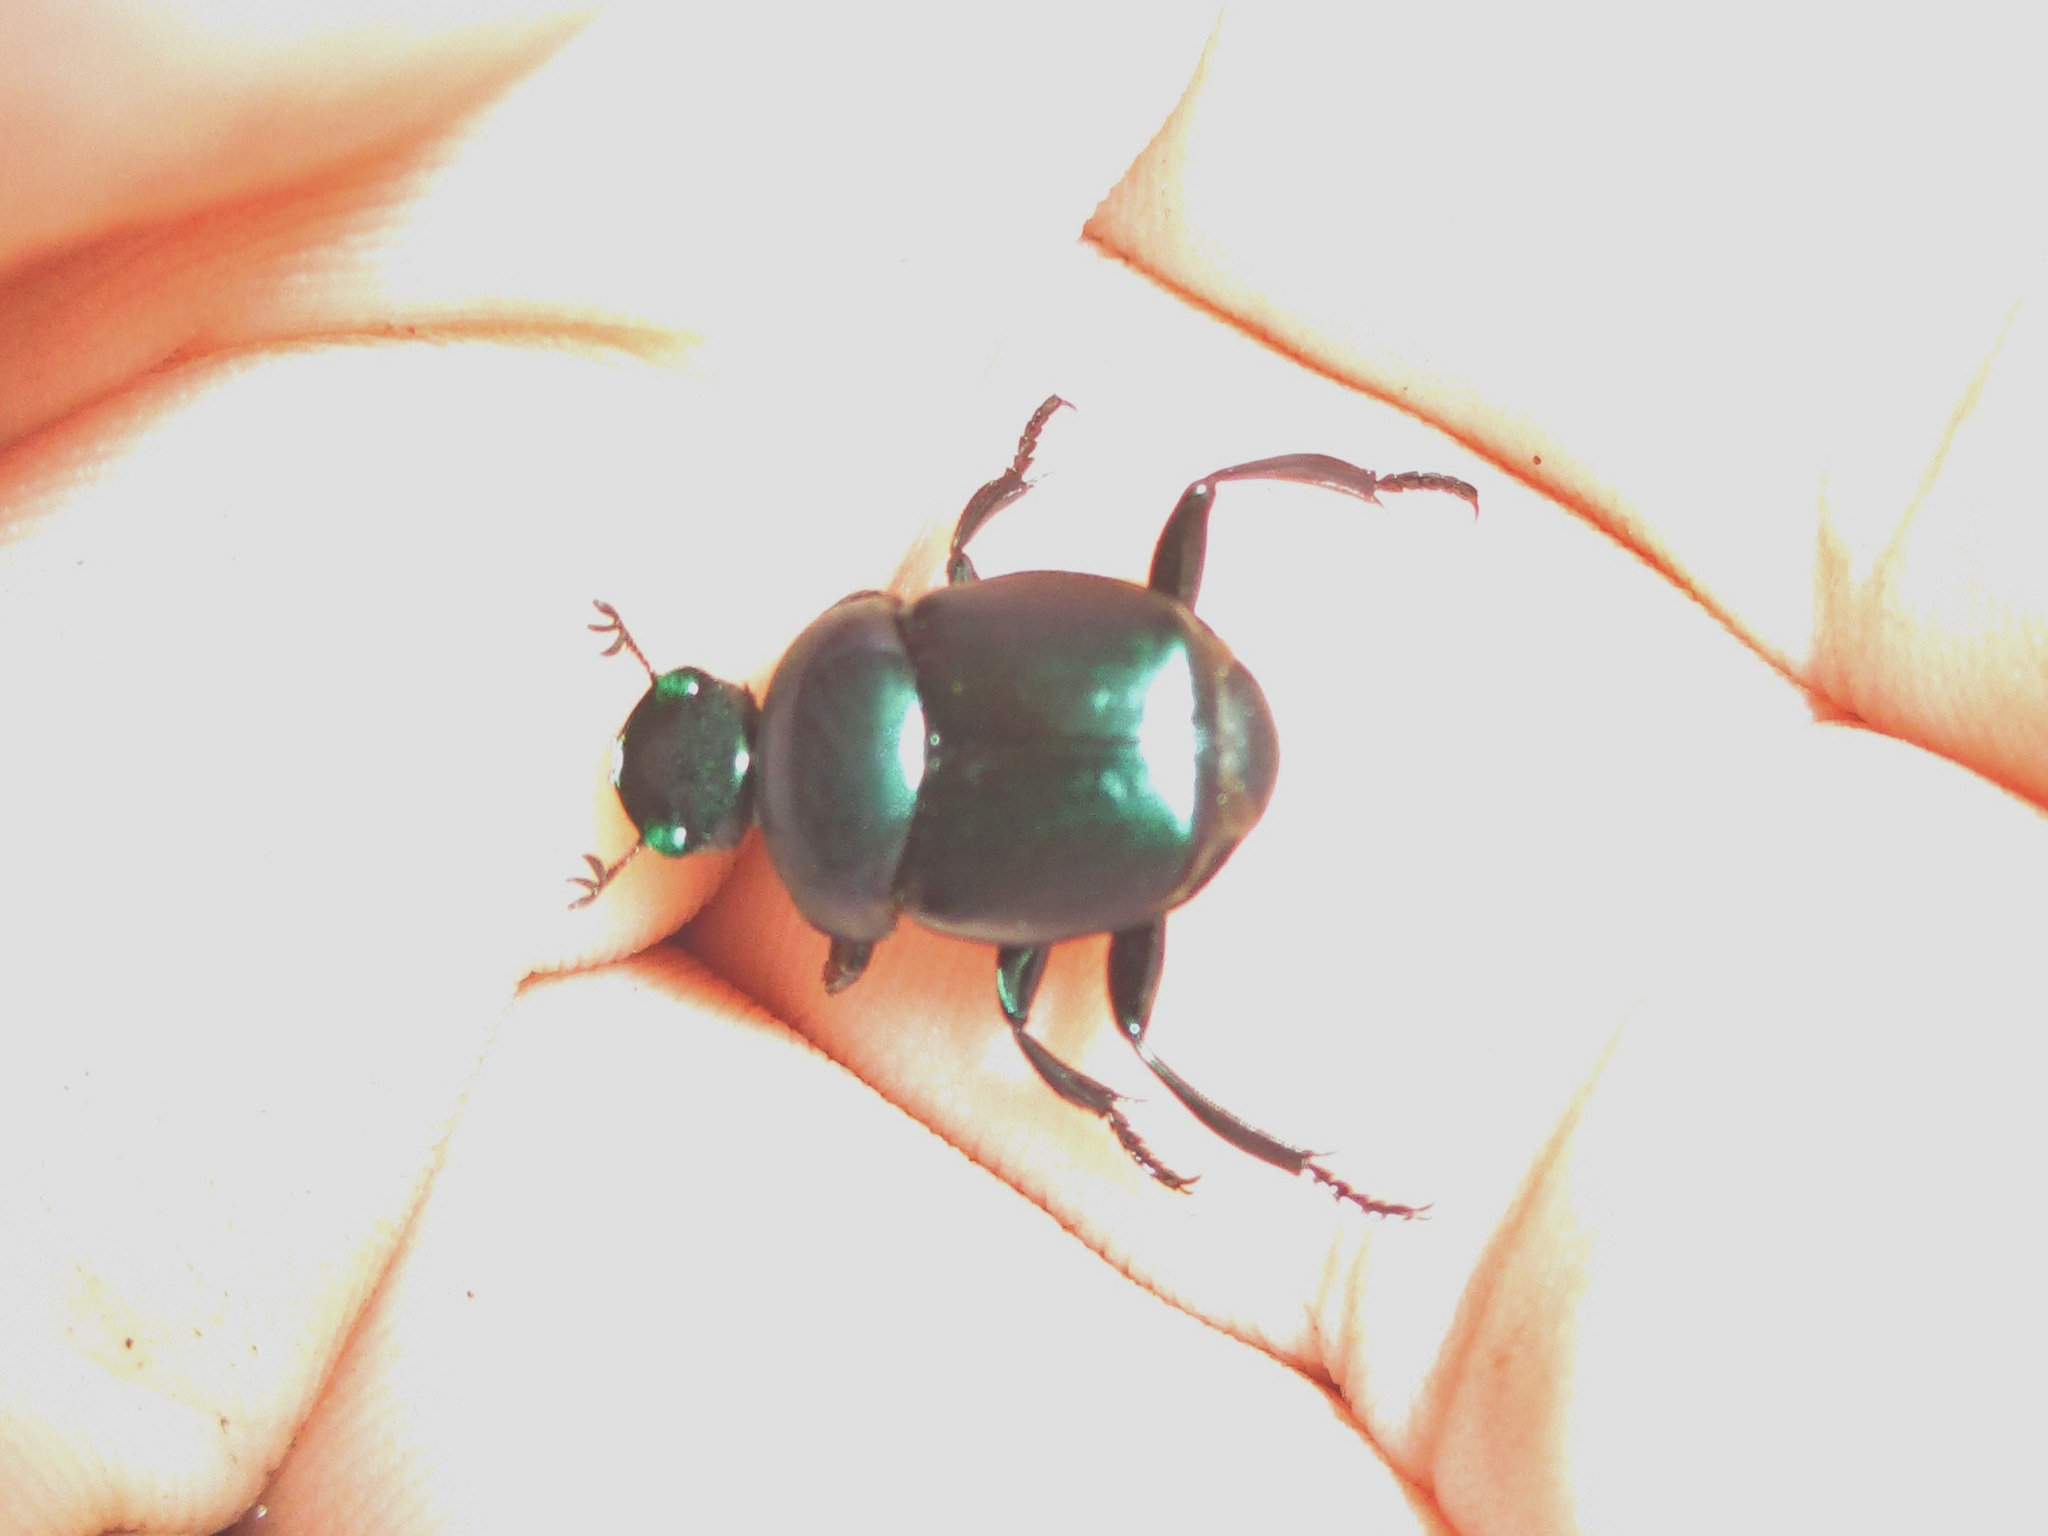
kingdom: Animalia
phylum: Arthropoda
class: Insecta
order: Coleoptera
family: Scarabaeidae
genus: Canthon
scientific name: Canthon rutilans
